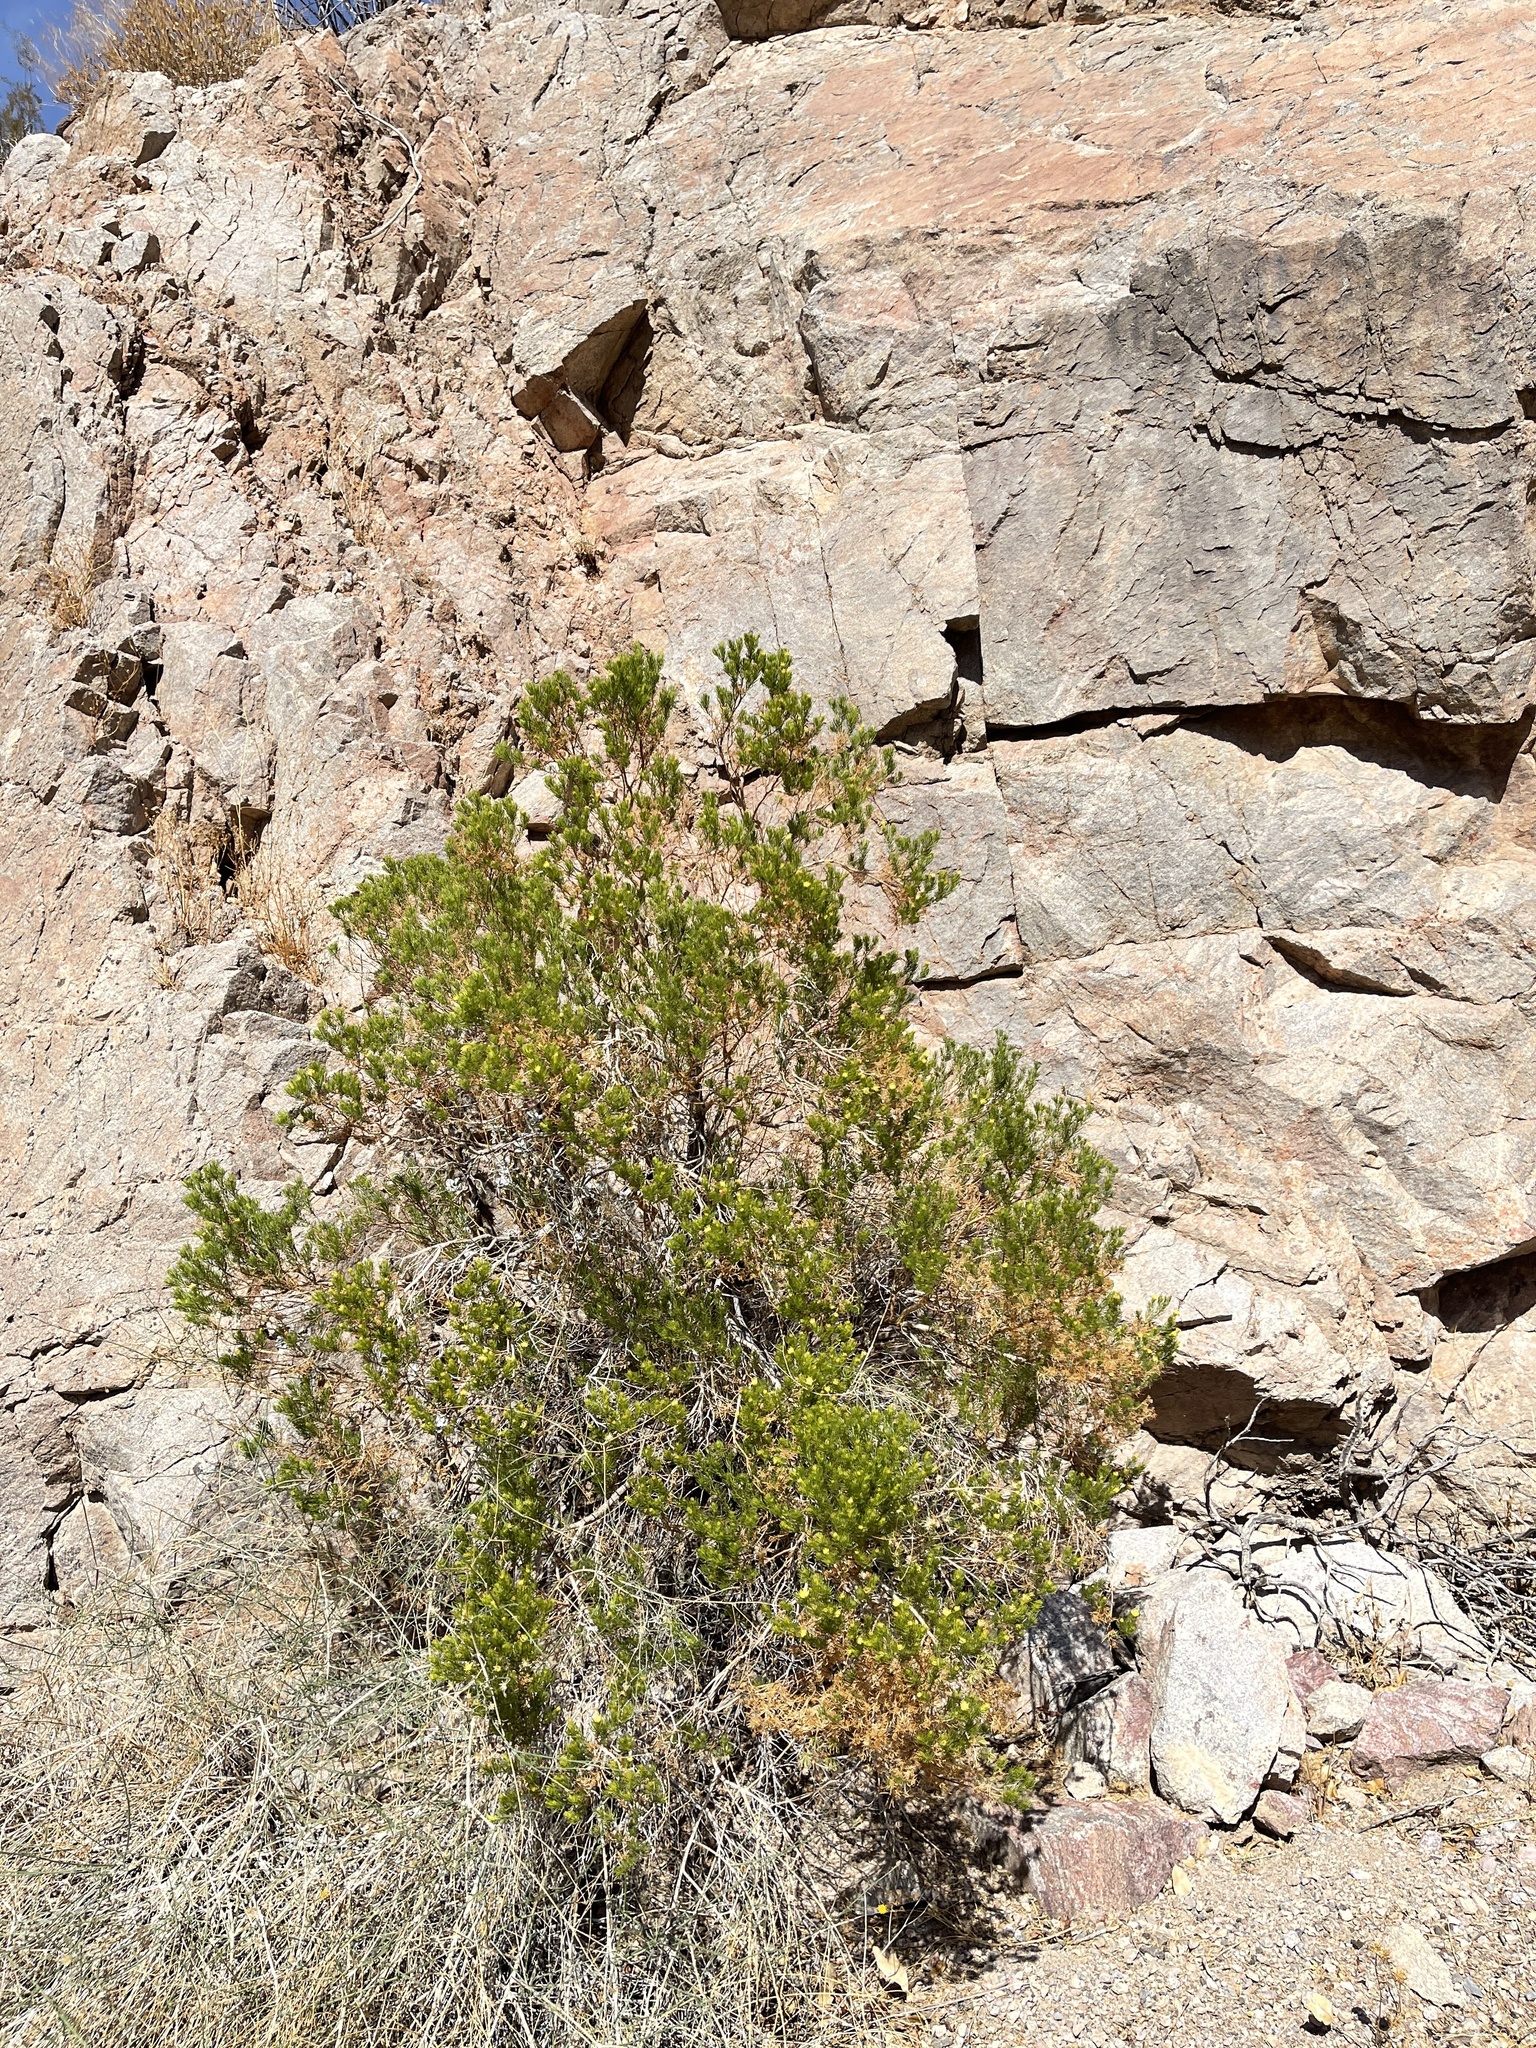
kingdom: Plantae
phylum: Tracheophyta
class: Magnoliopsida
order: Asterales
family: Asteraceae
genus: Peucephyllum
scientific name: Peucephyllum schottii
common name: Pygmy-cedar
